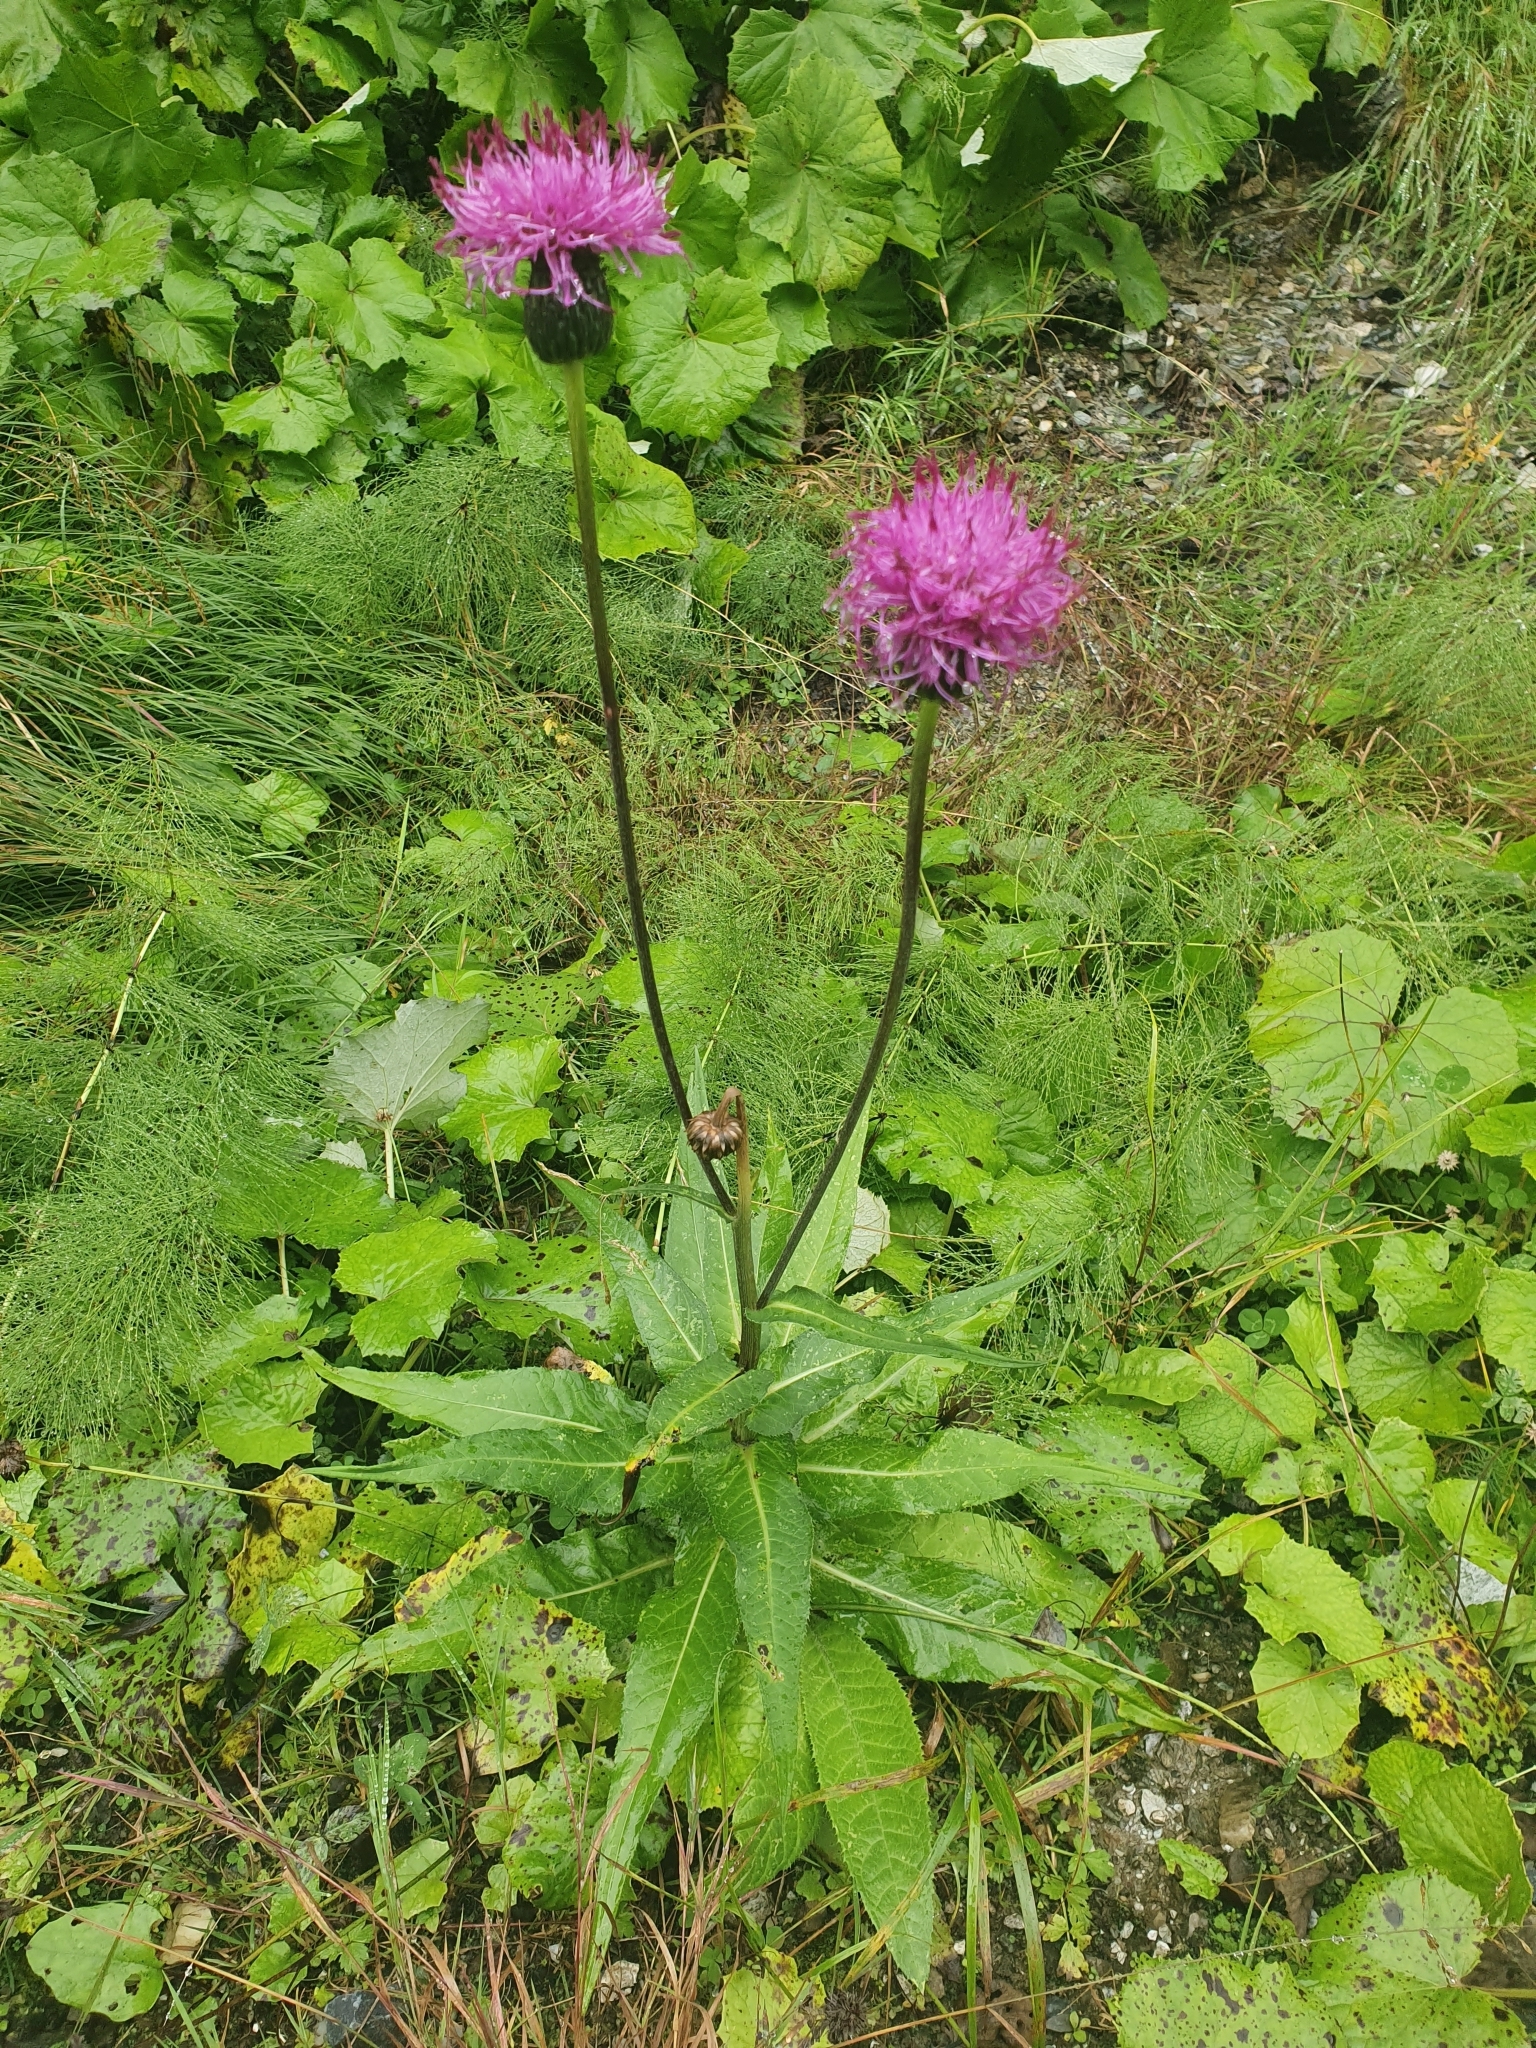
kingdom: Plantae
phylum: Tracheophyta
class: Magnoliopsida
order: Asterales
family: Asteraceae
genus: Cirsium
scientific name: Cirsium heterophyllum
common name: Melancholy thistle
